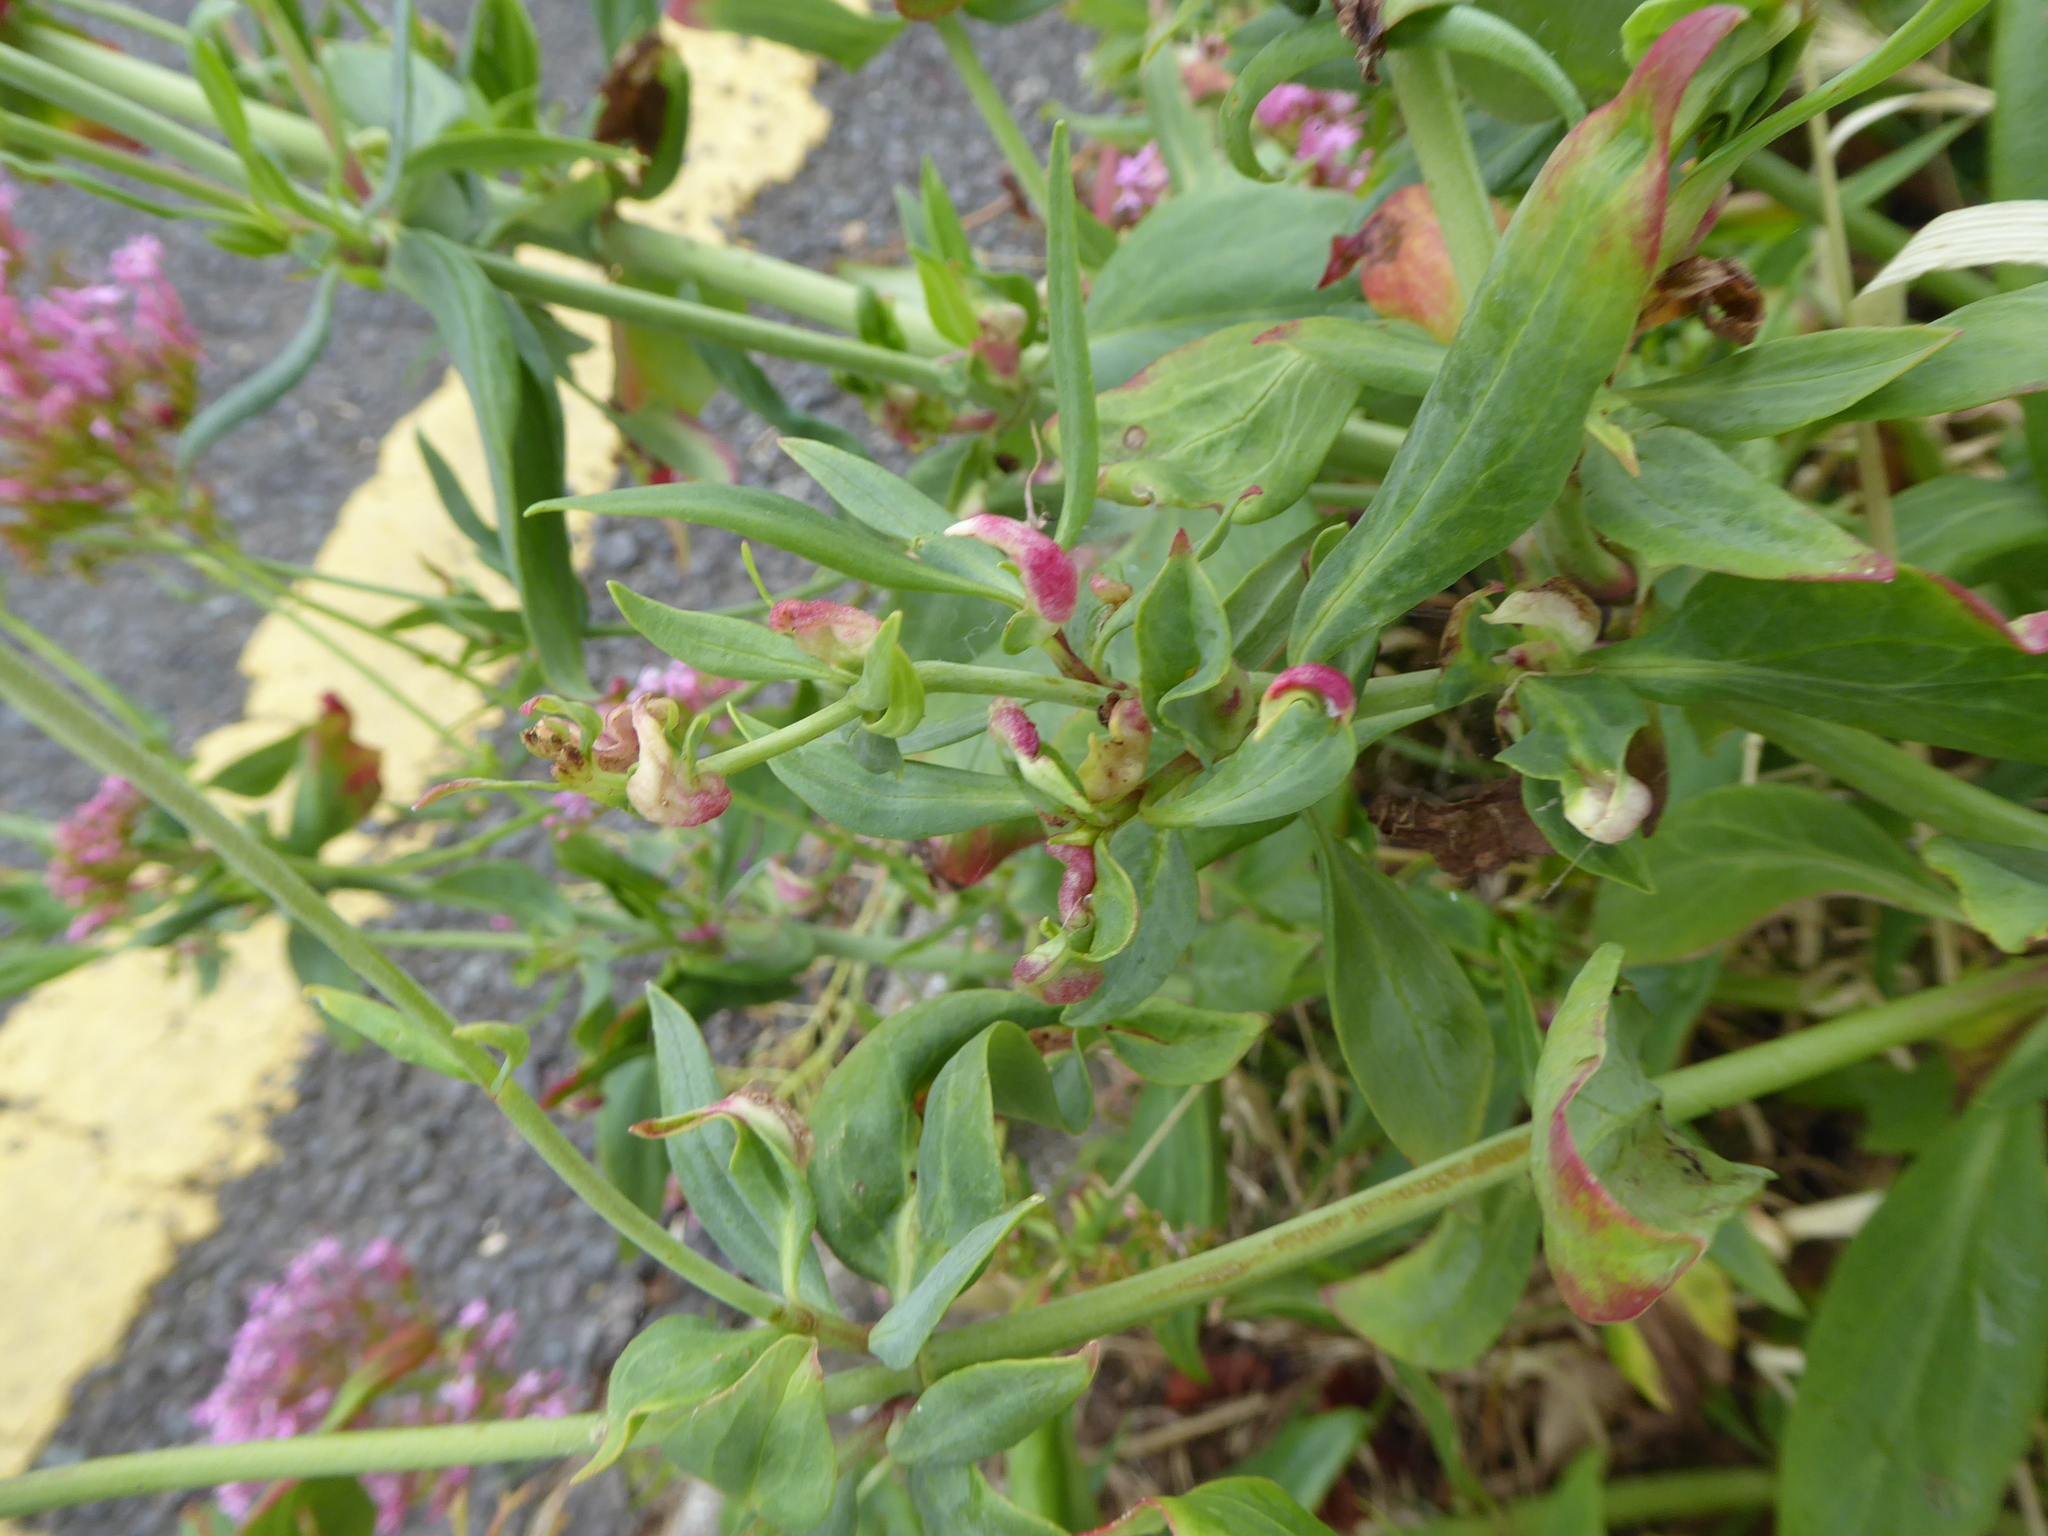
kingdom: Animalia
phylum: Arthropoda
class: Insecta
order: Hemiptera
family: Triozidae
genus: Trioza
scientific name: Trioza centranthi
